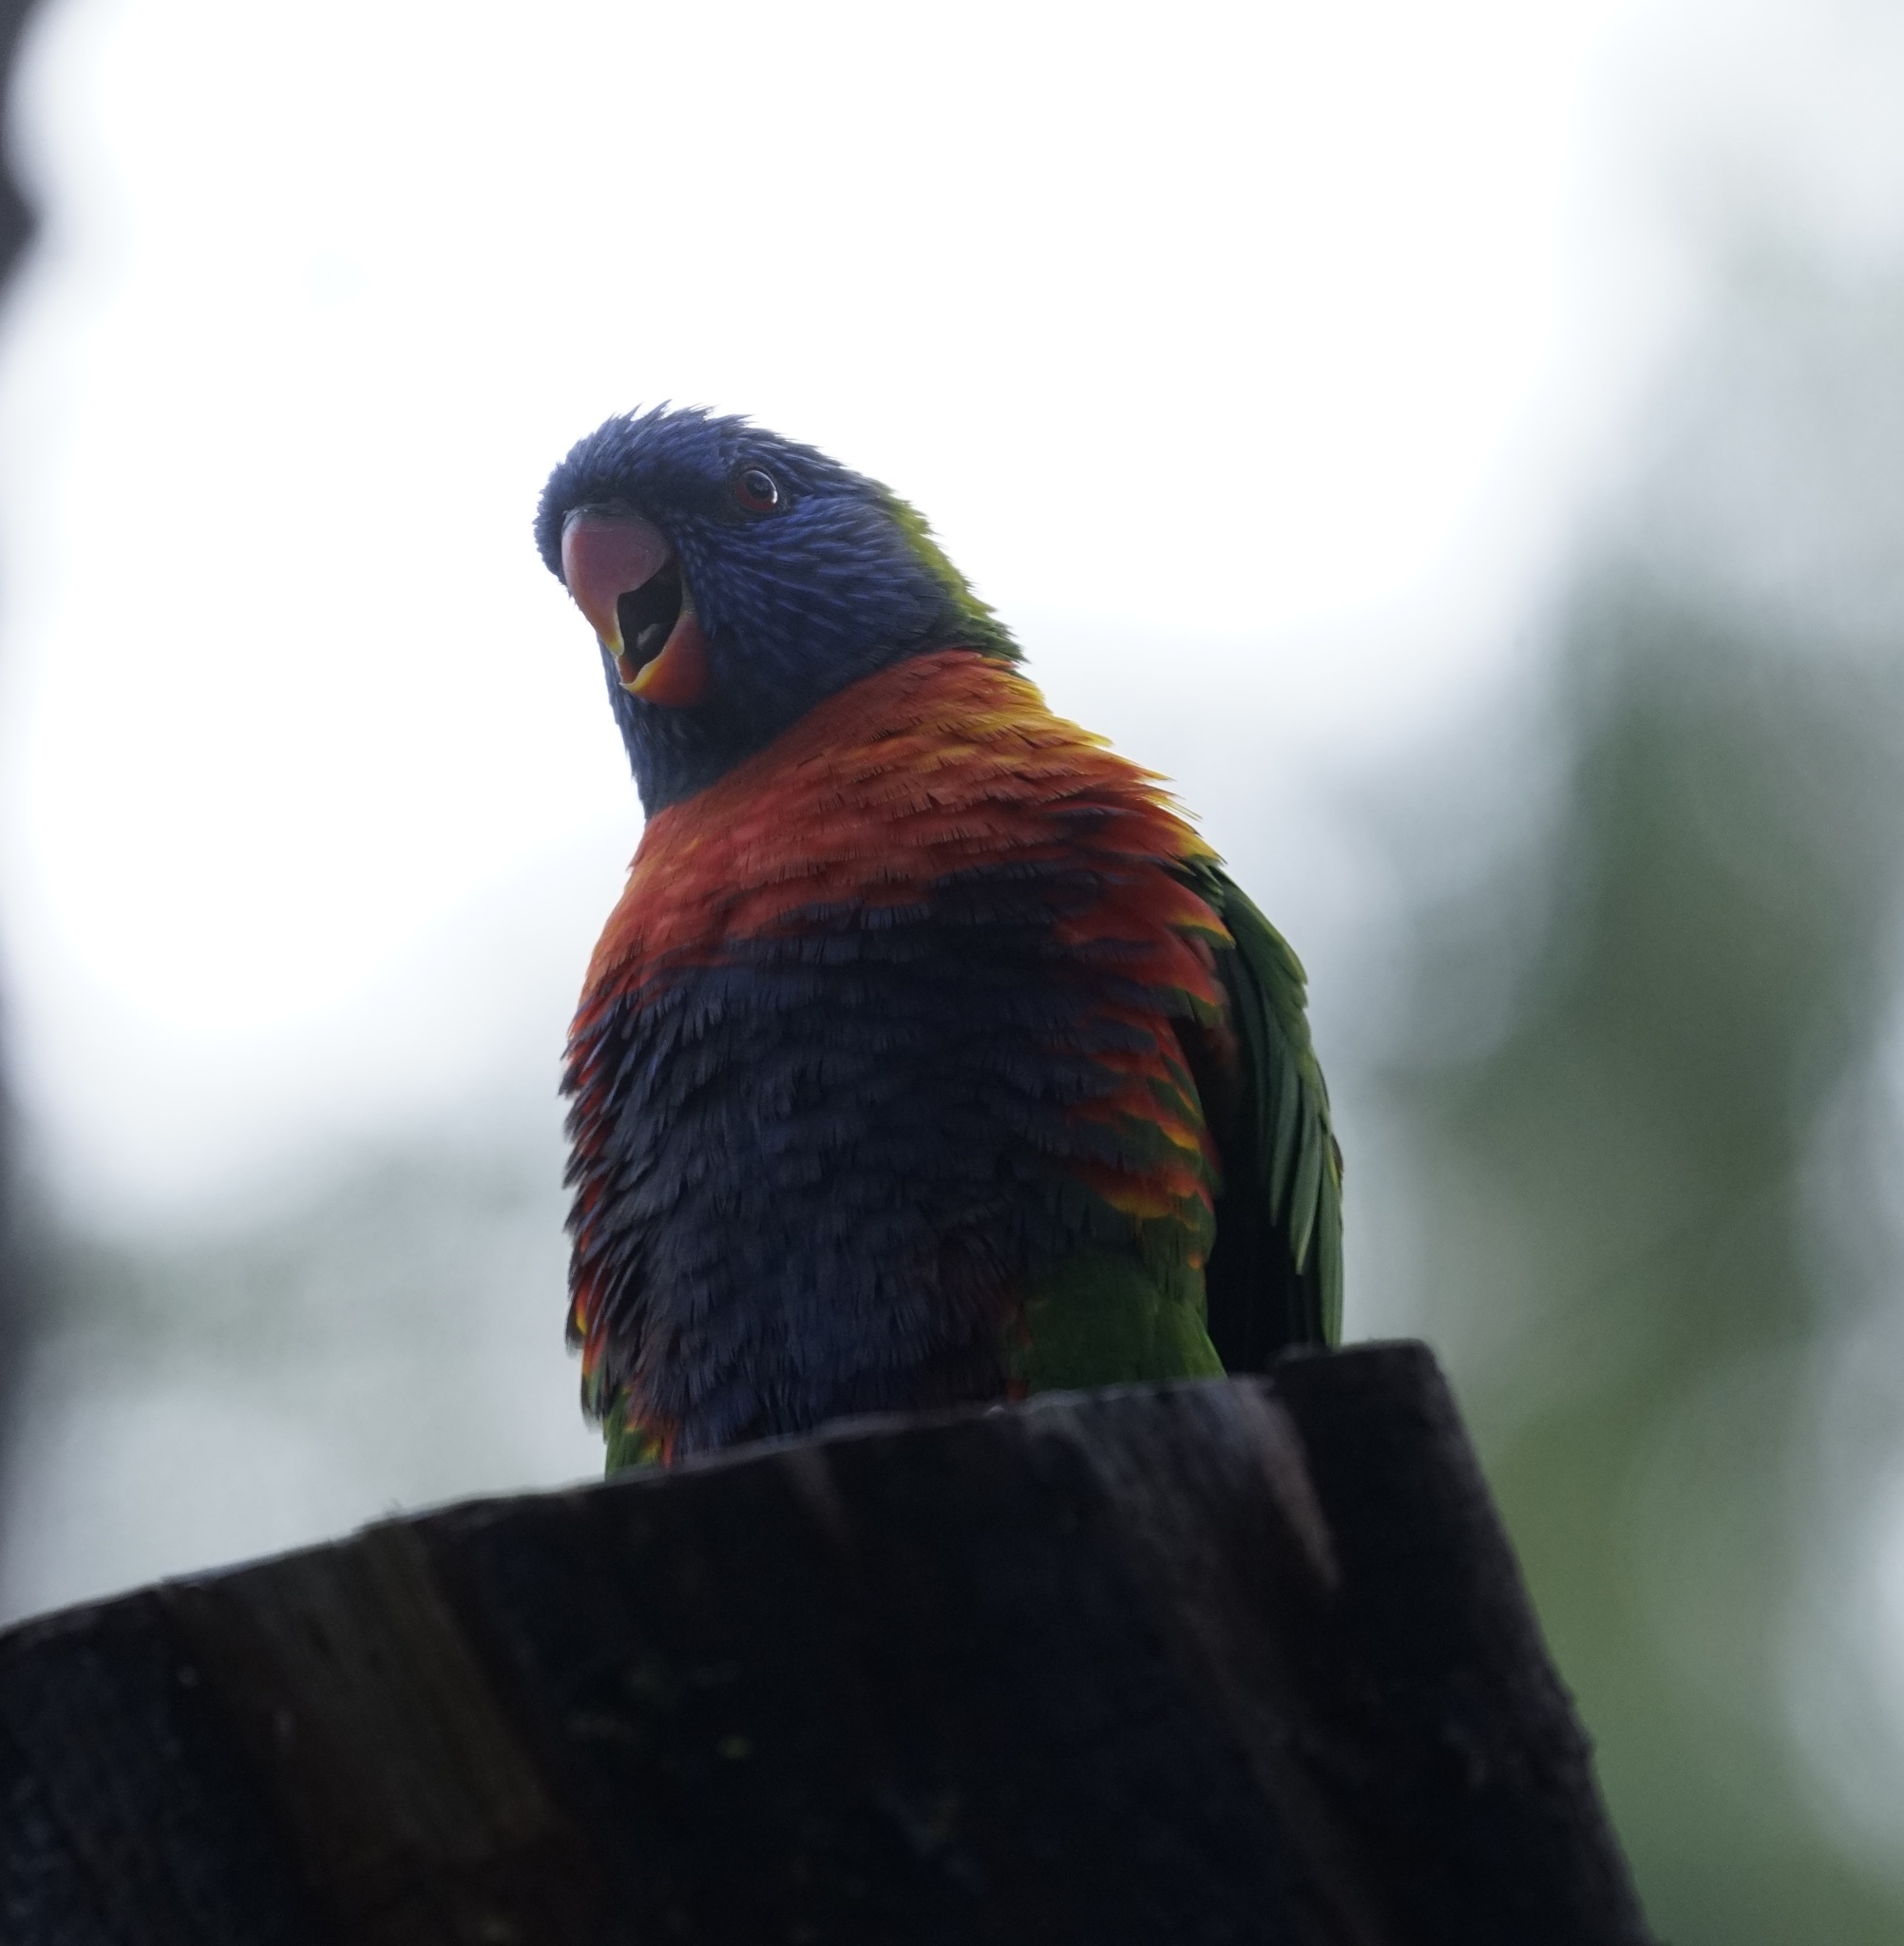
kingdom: Animalia
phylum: Chordata
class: Aves
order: Psittaciformes
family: Psittacidae
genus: Trichoglossus
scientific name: Trichoglossus haematodus
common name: Coconut lorikeet
